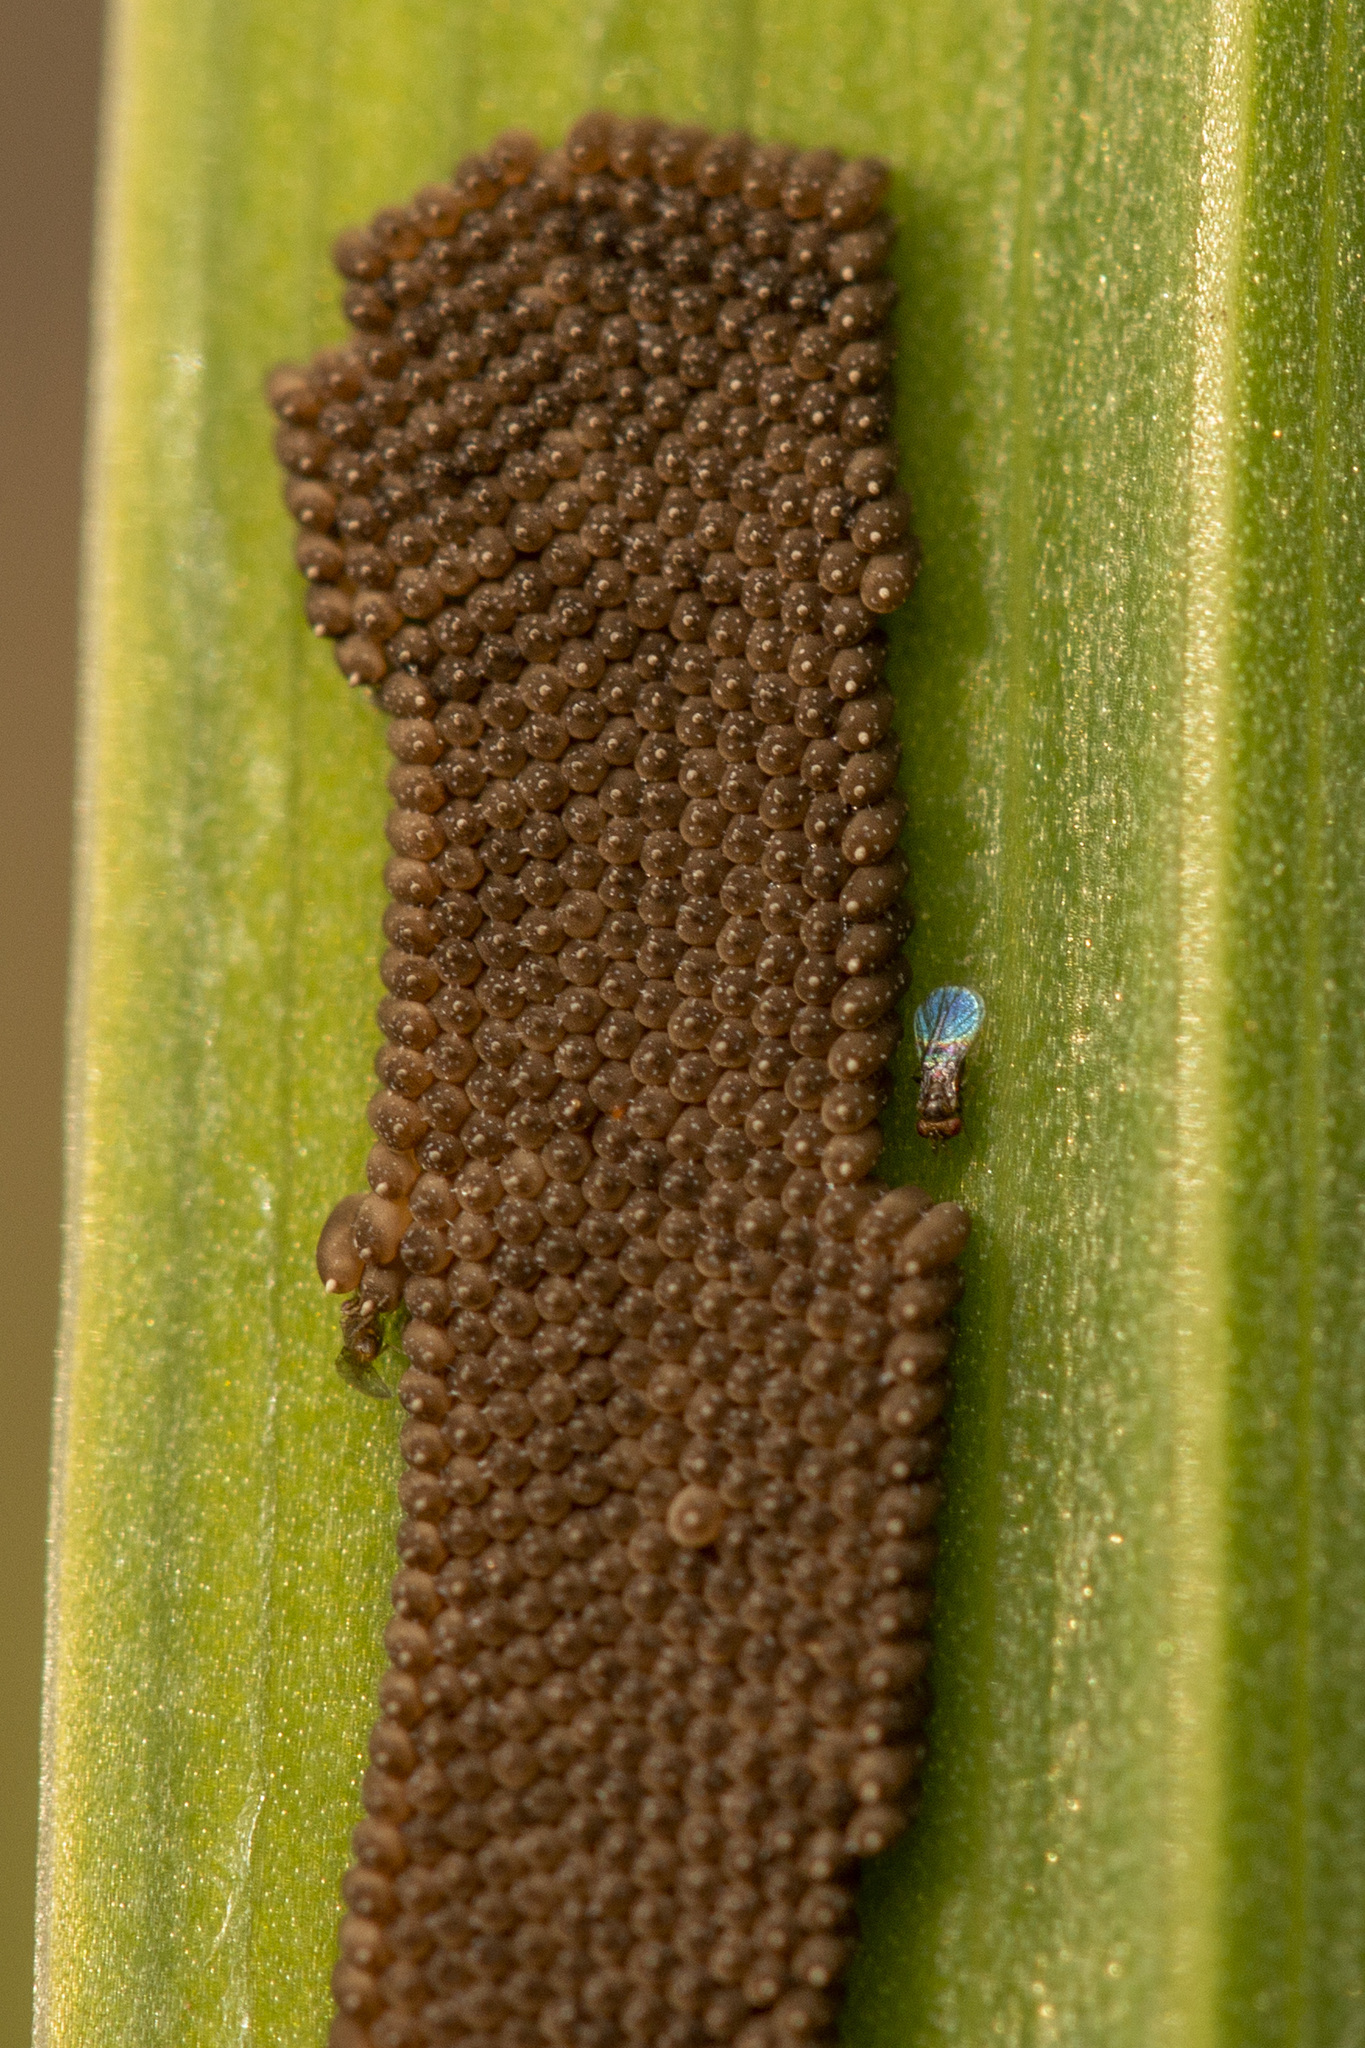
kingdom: Animalia
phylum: Arthropoda
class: Insecta
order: Megaloptera
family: Sialidae
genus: Sialis
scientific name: Sialis
